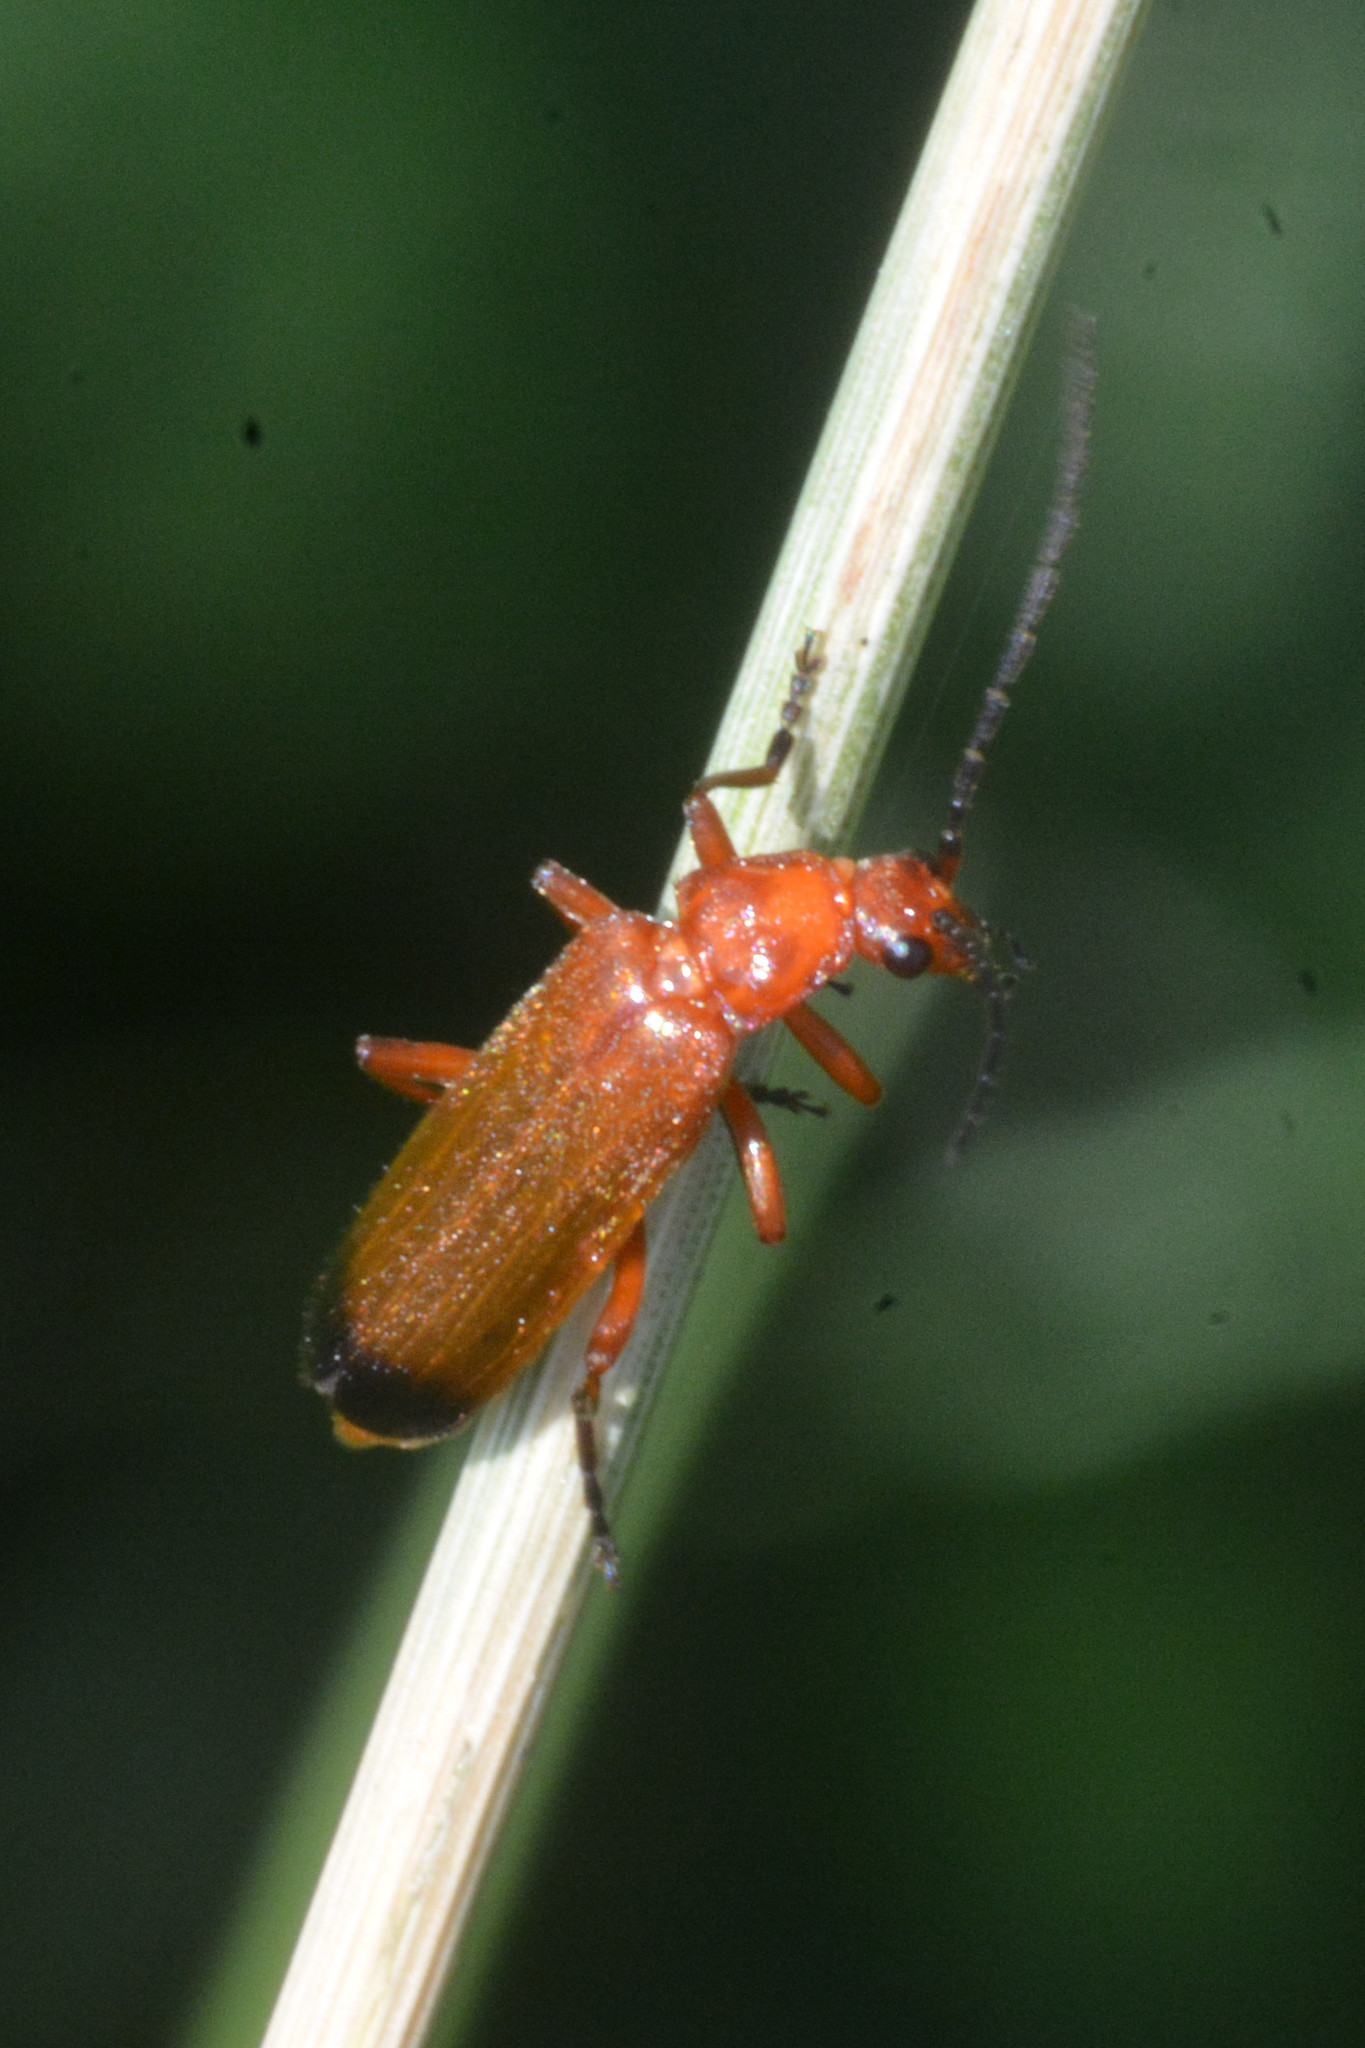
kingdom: Animalia
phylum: Arthropoda
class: Insecta
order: Coleoptera
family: Cantharidae
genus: Rhagonycha
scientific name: Rhagonycha fulva
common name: Common red soldier beetle
